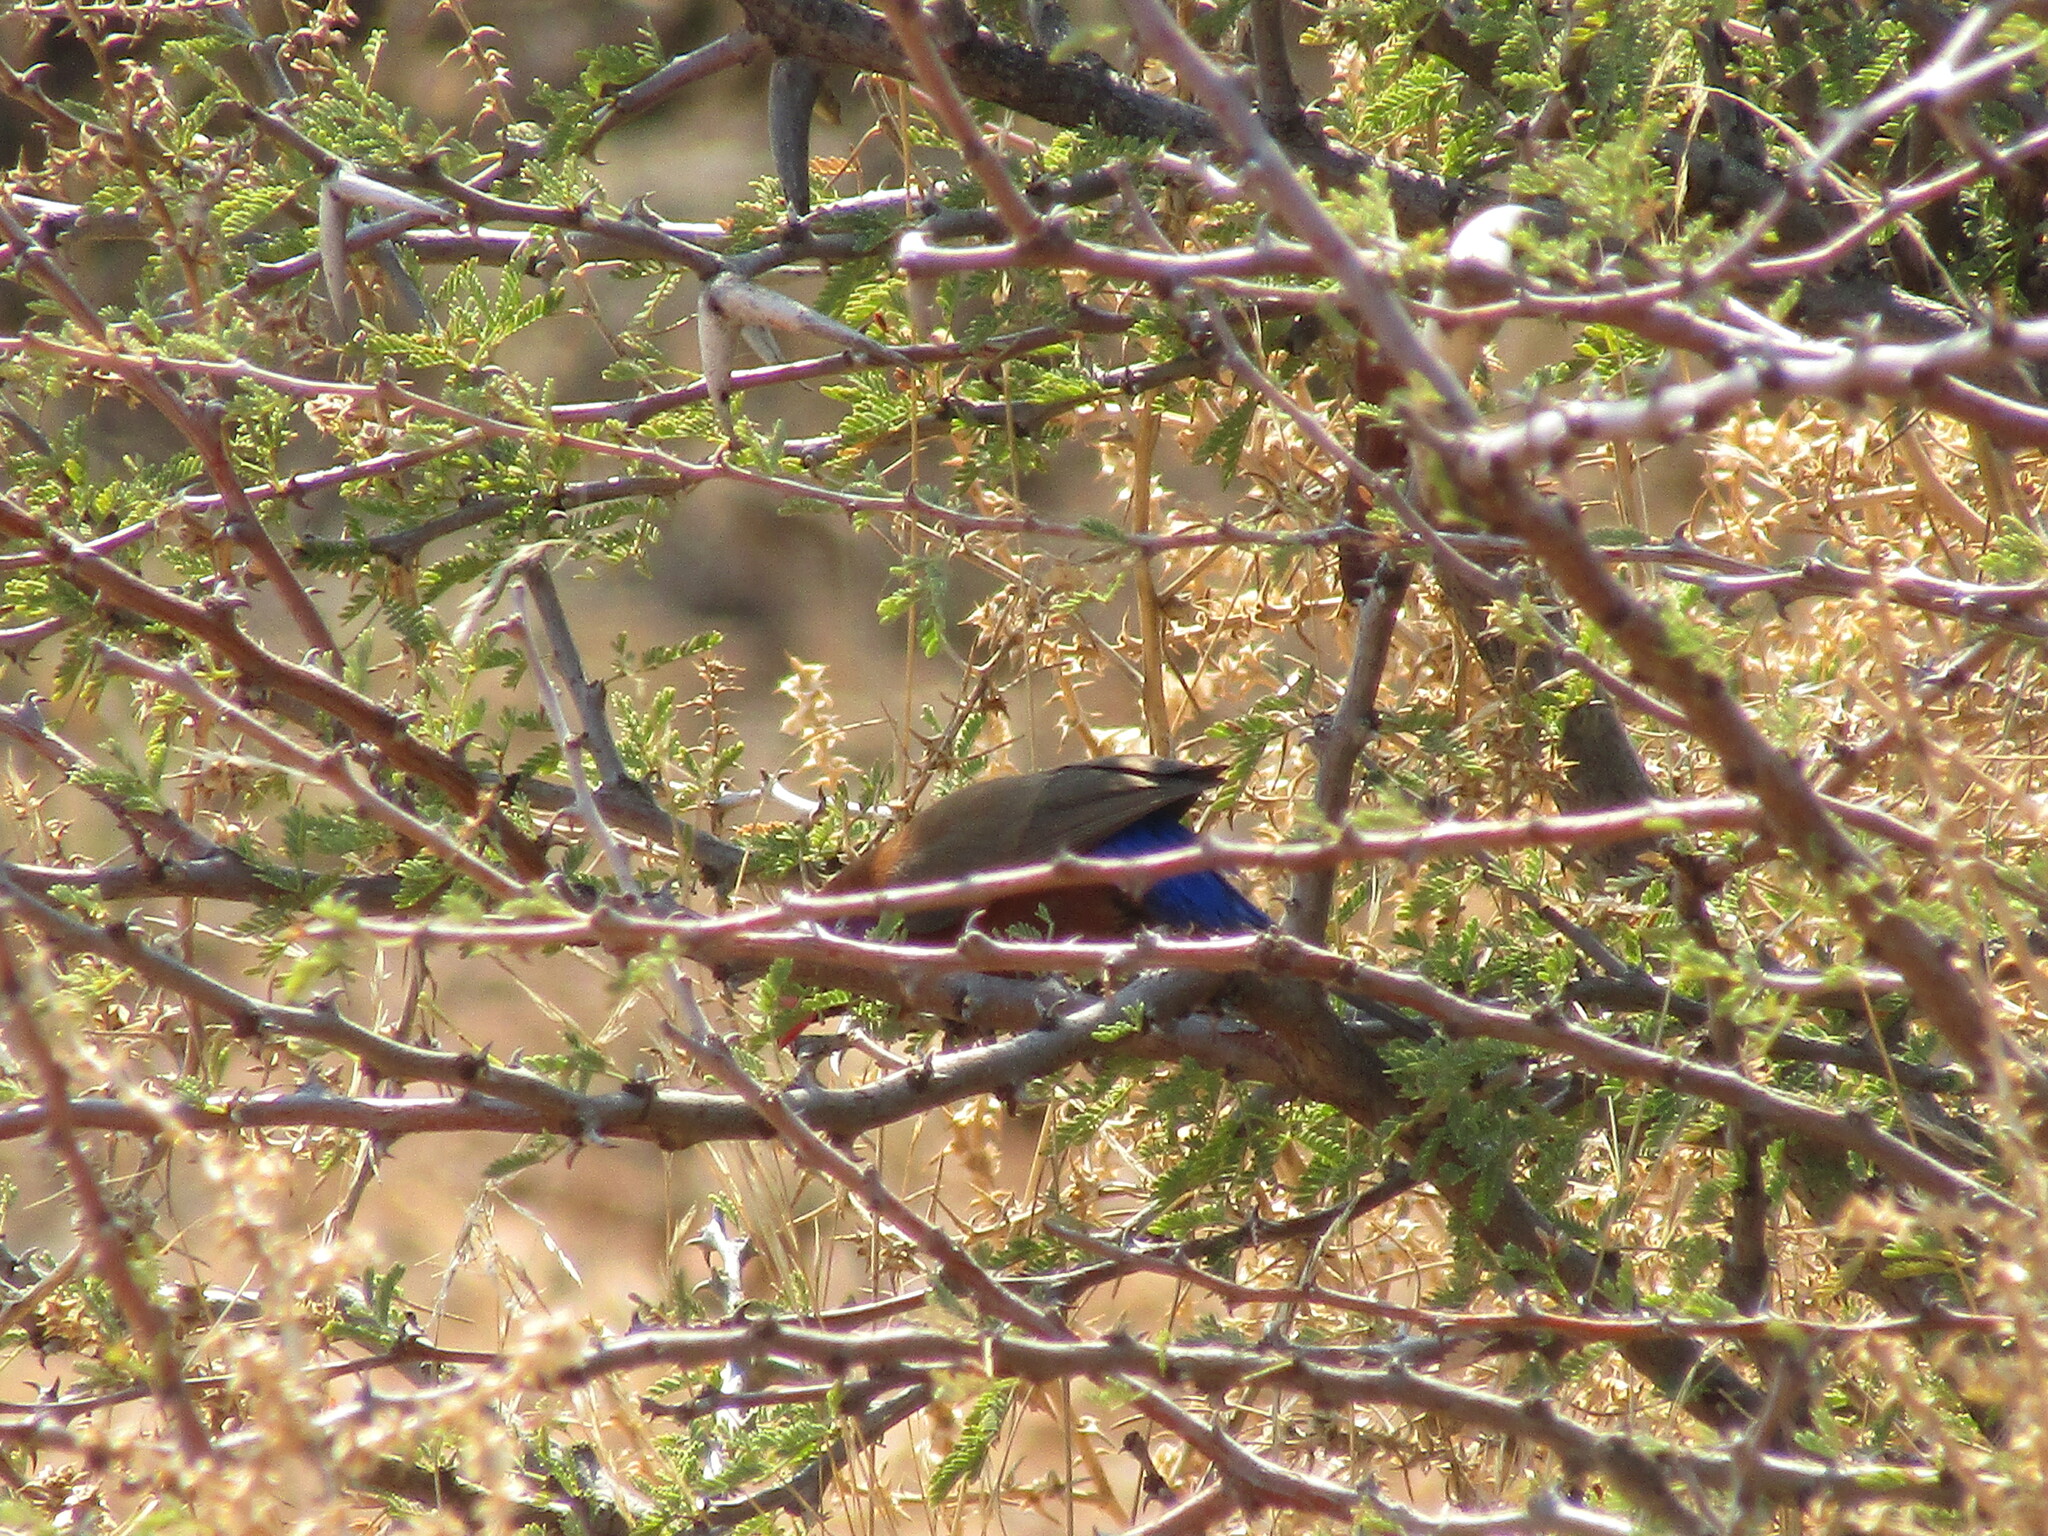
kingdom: Animalia
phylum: Chordata
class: Aves
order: Passeriformes
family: Estrildidae
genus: Uraeginthus
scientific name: Uraeginthus granatinus
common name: Violet-eared waxbill
